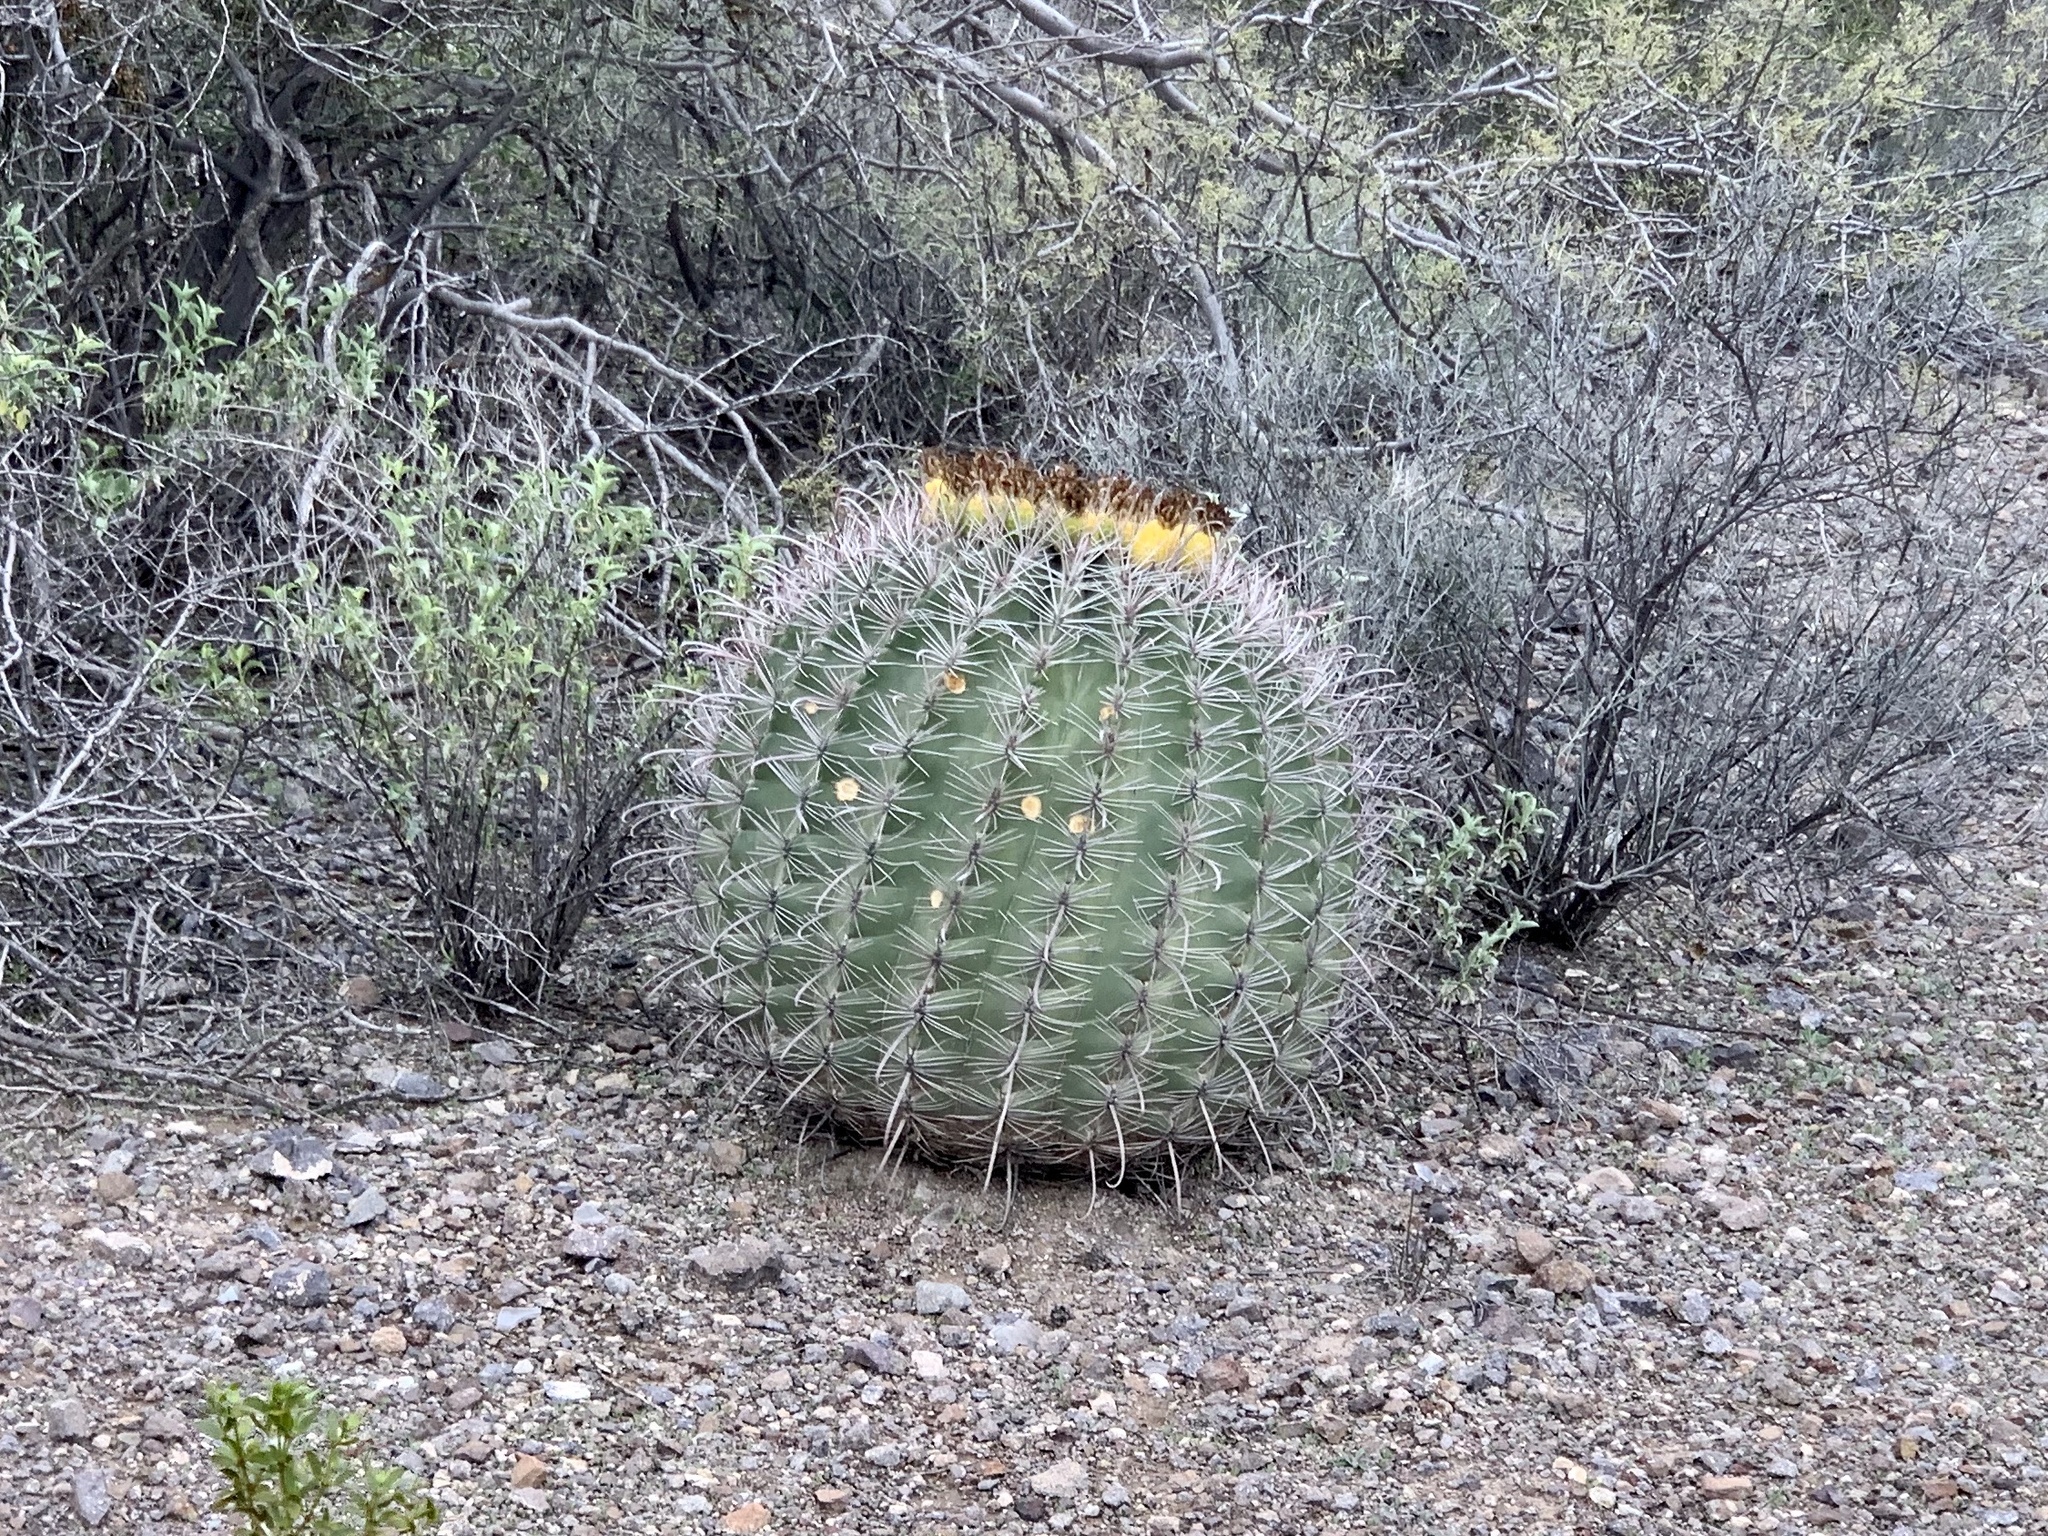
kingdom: Plantae
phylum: Tracheophyta
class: Magnoliopsida
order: Caryophyllales
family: Cactaceae
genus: Ferocactus
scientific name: Ferocactus wislizeni
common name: Candy barrel cactus
